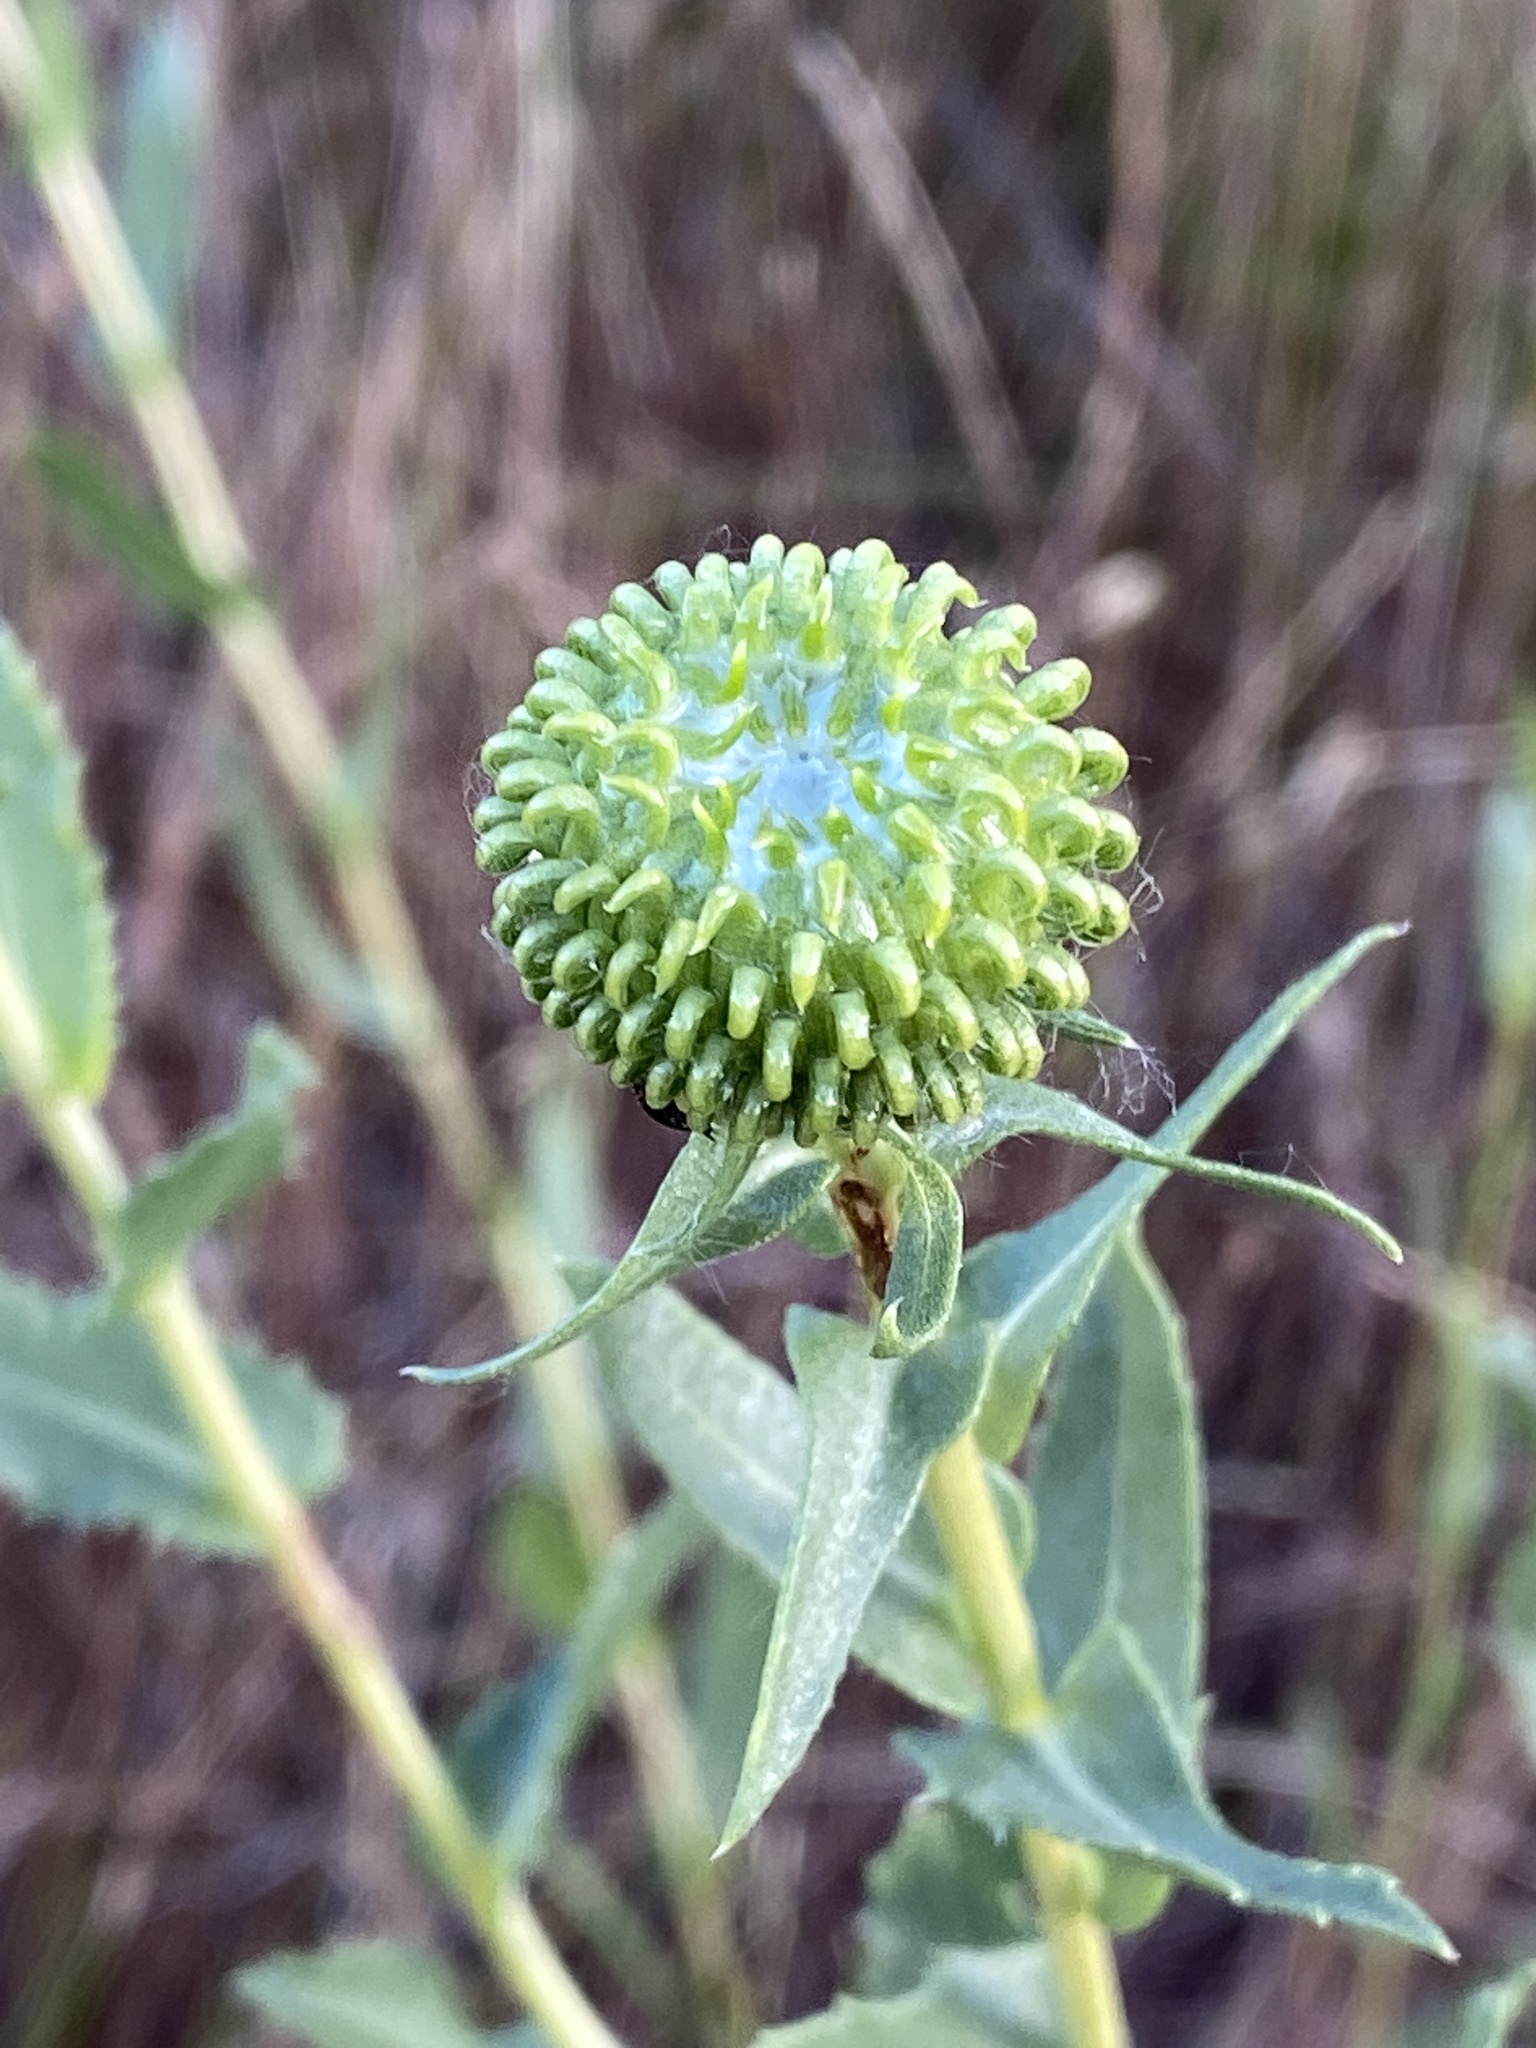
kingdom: Plantae
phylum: Tracheophyta
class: Magnoliopsida
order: Asterales
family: Asteraceae
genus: Grindelia
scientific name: Grindelia hirsutula
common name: Hairy gumweed
